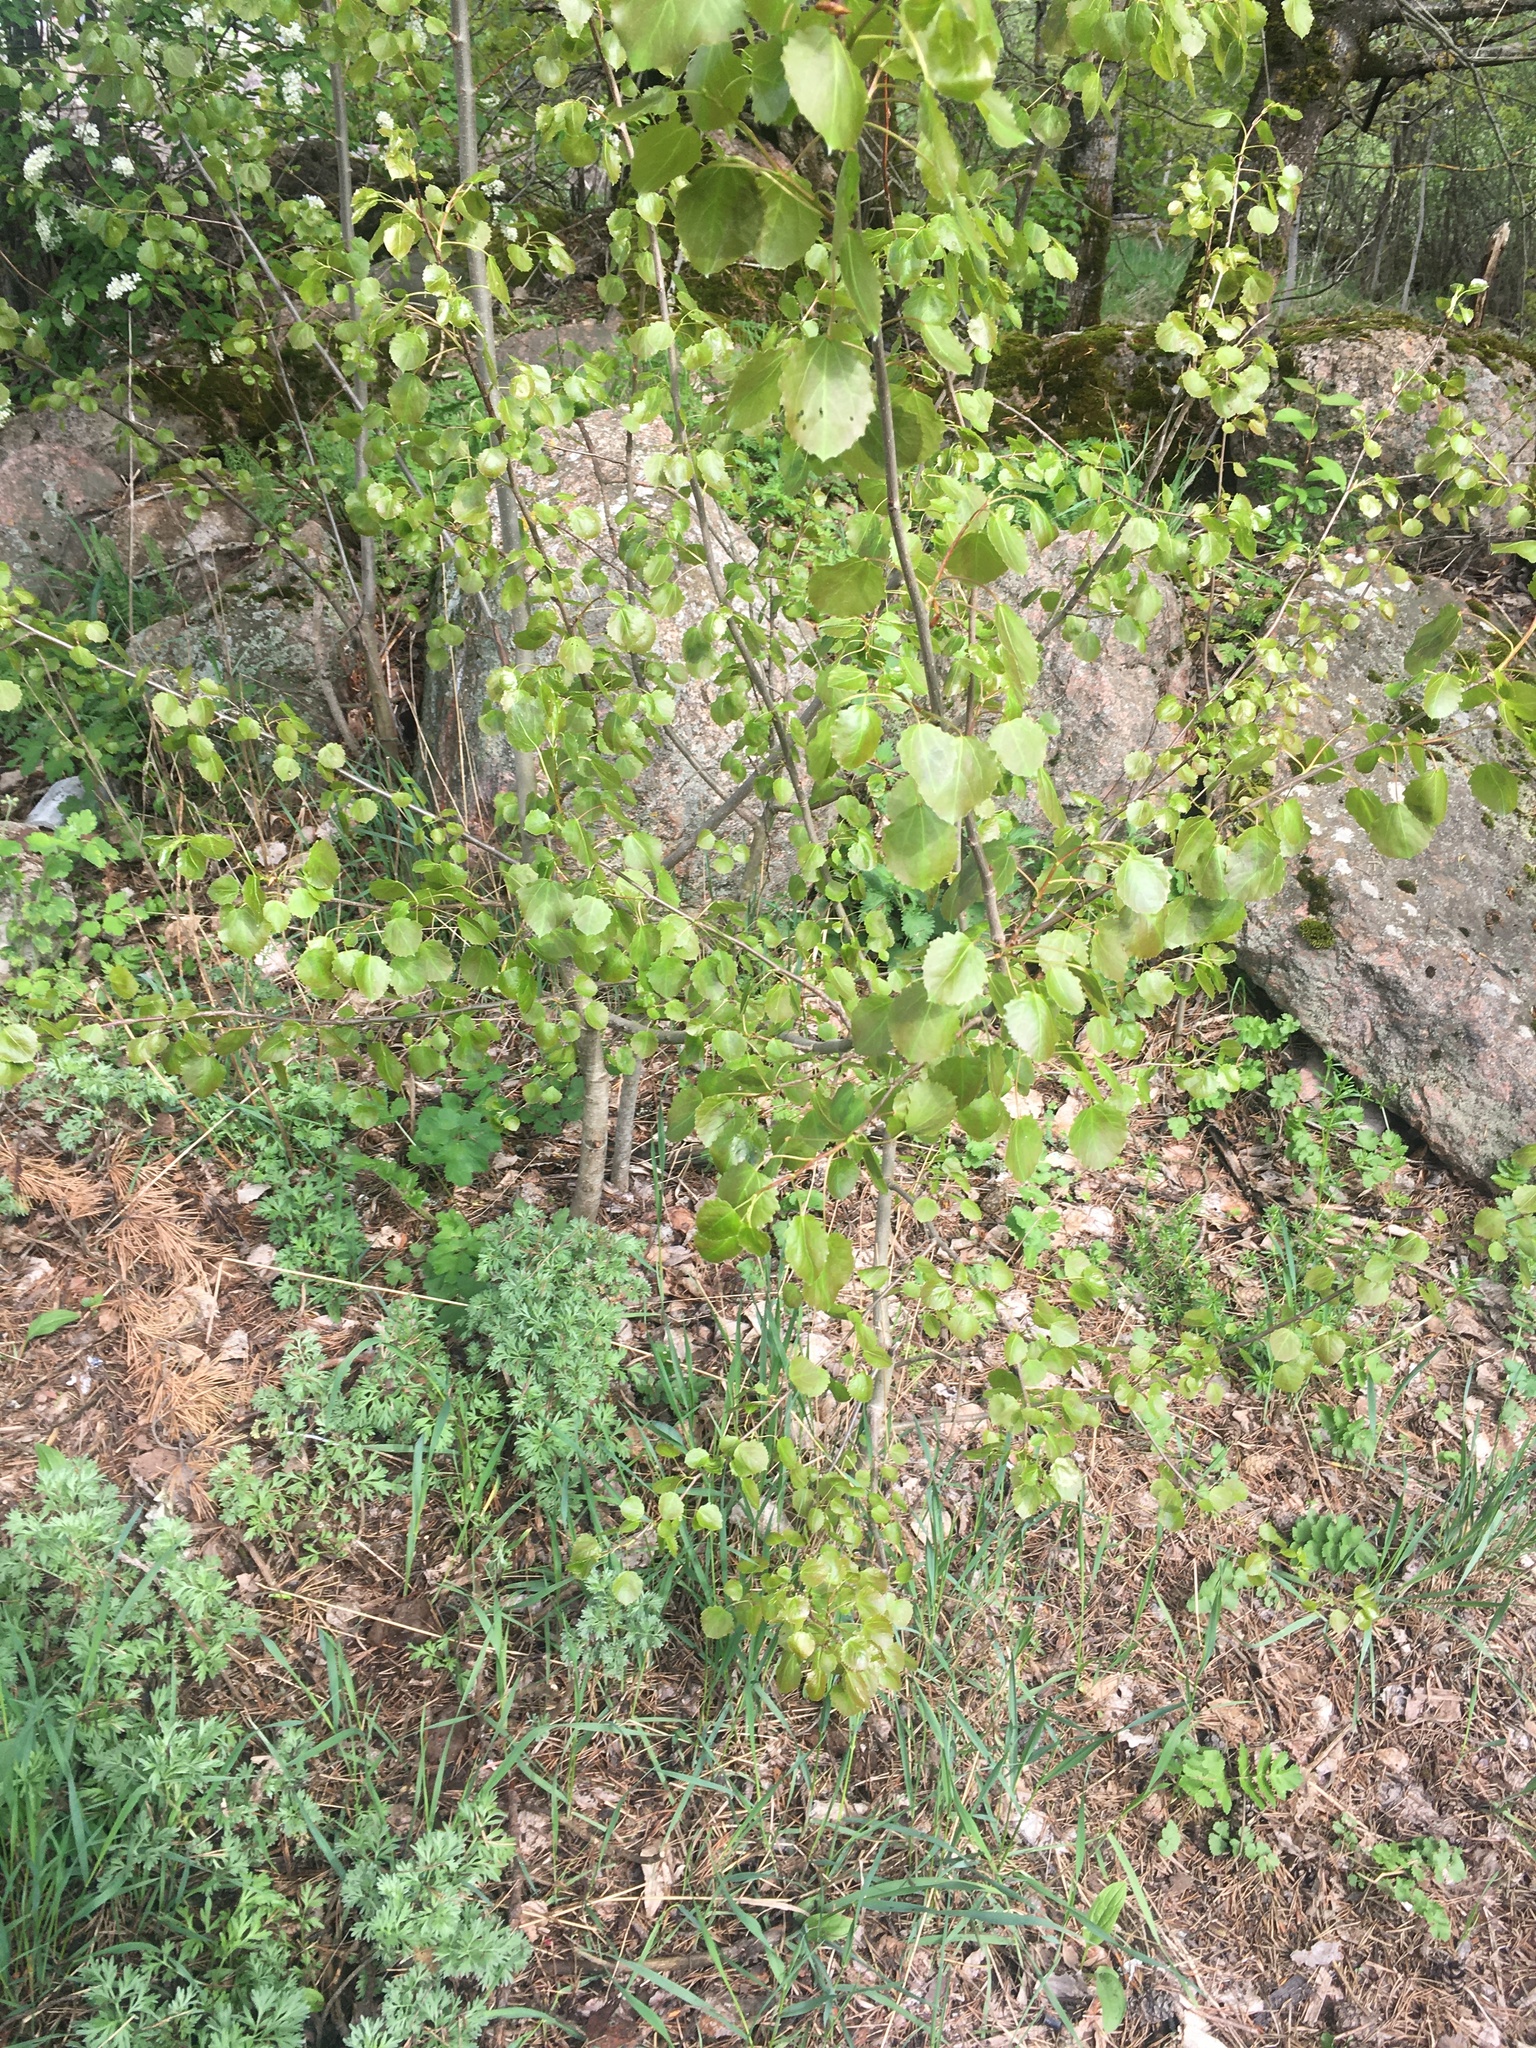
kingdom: Plantae
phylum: Tracheophyta
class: Magnoliopsida
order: Malpighiales
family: Salicaceae
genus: Populus
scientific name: Populus tremula
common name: European aspen
